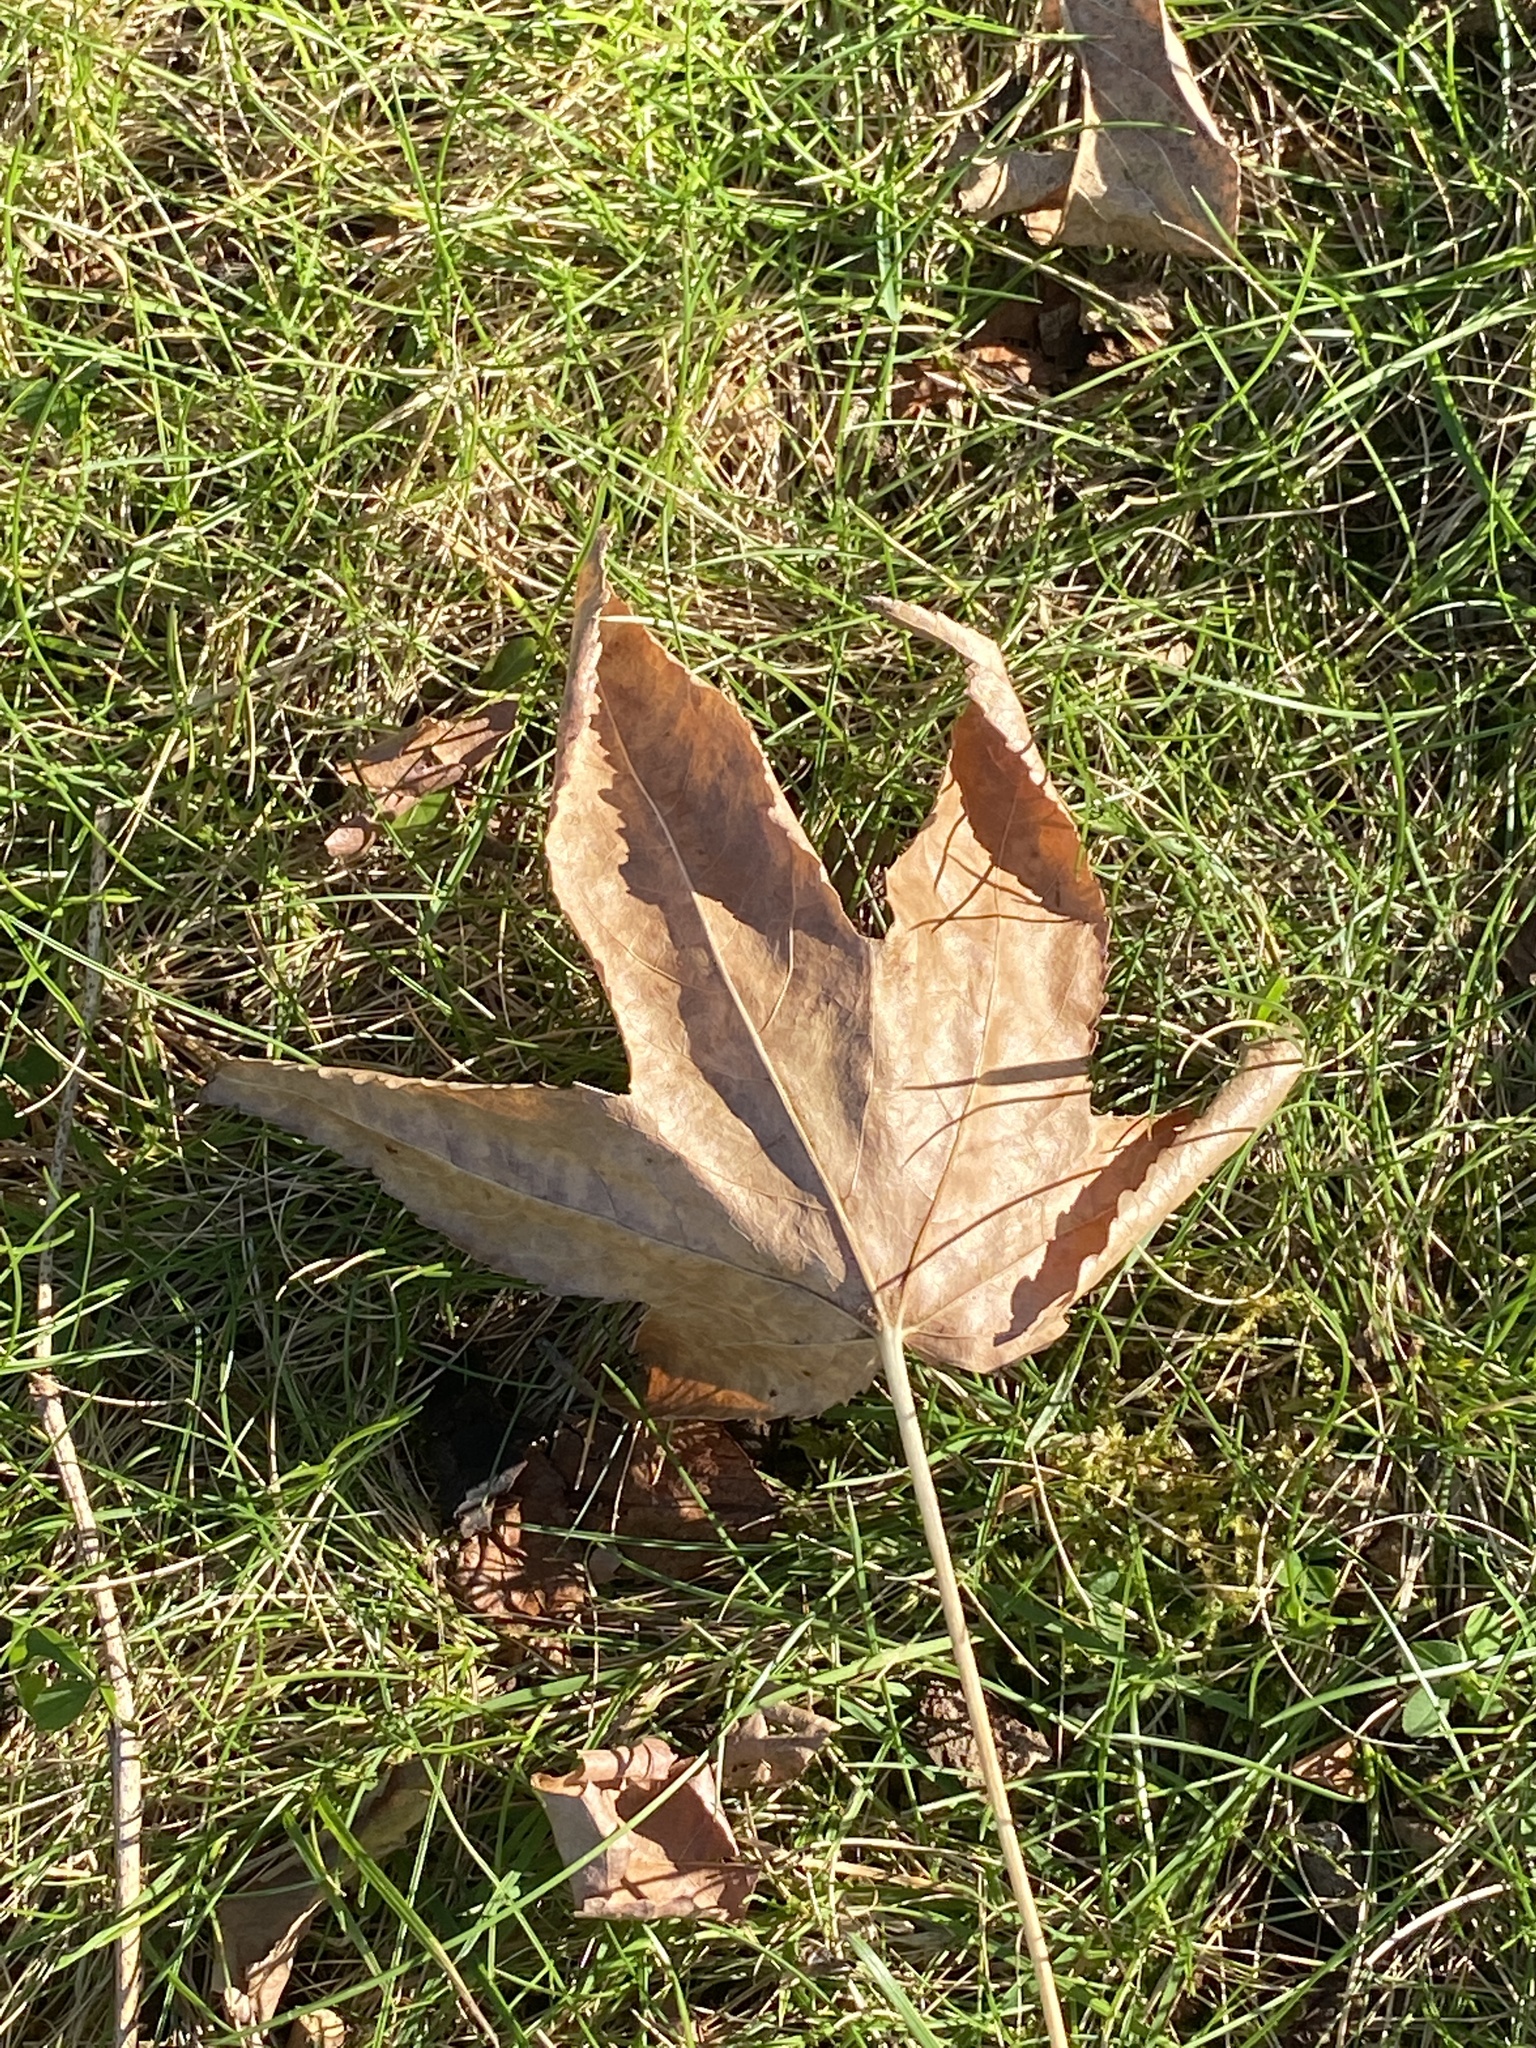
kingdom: Plantae
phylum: Tracheophyta
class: Magnoliopsida
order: Saxifragales
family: Altingiaceae
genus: Liquidambar
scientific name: Liquidambar styraciflua
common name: Sweet gum
